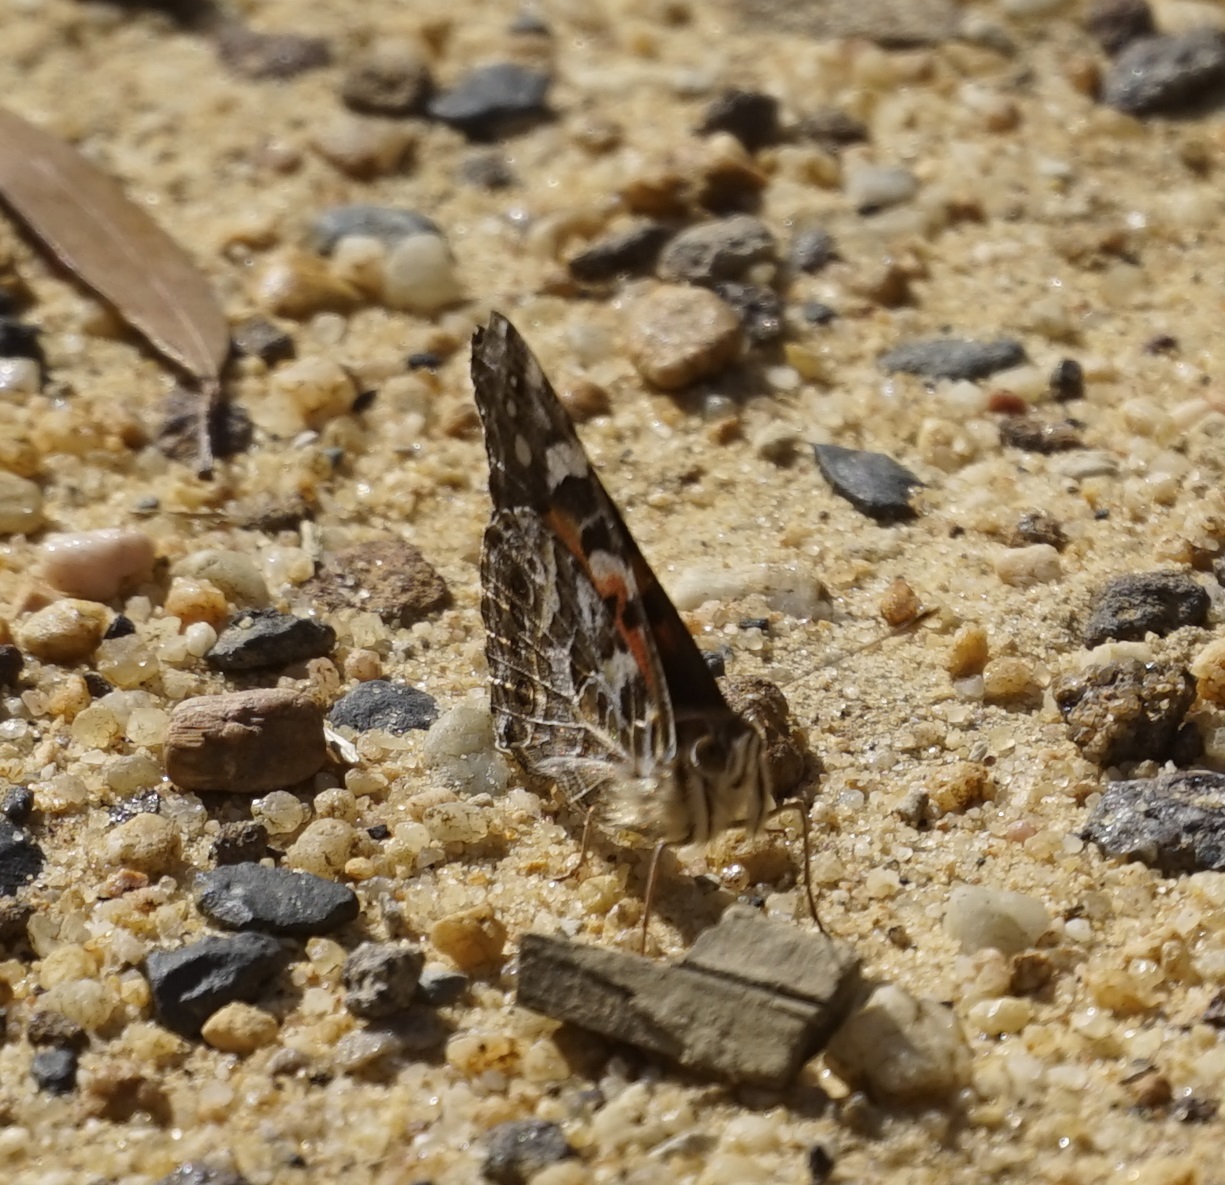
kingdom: Animalia
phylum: Arthropoda
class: Insecta
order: Lepidoptera
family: Nymphalidae
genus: Vanessa
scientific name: Vanessa kershawi
